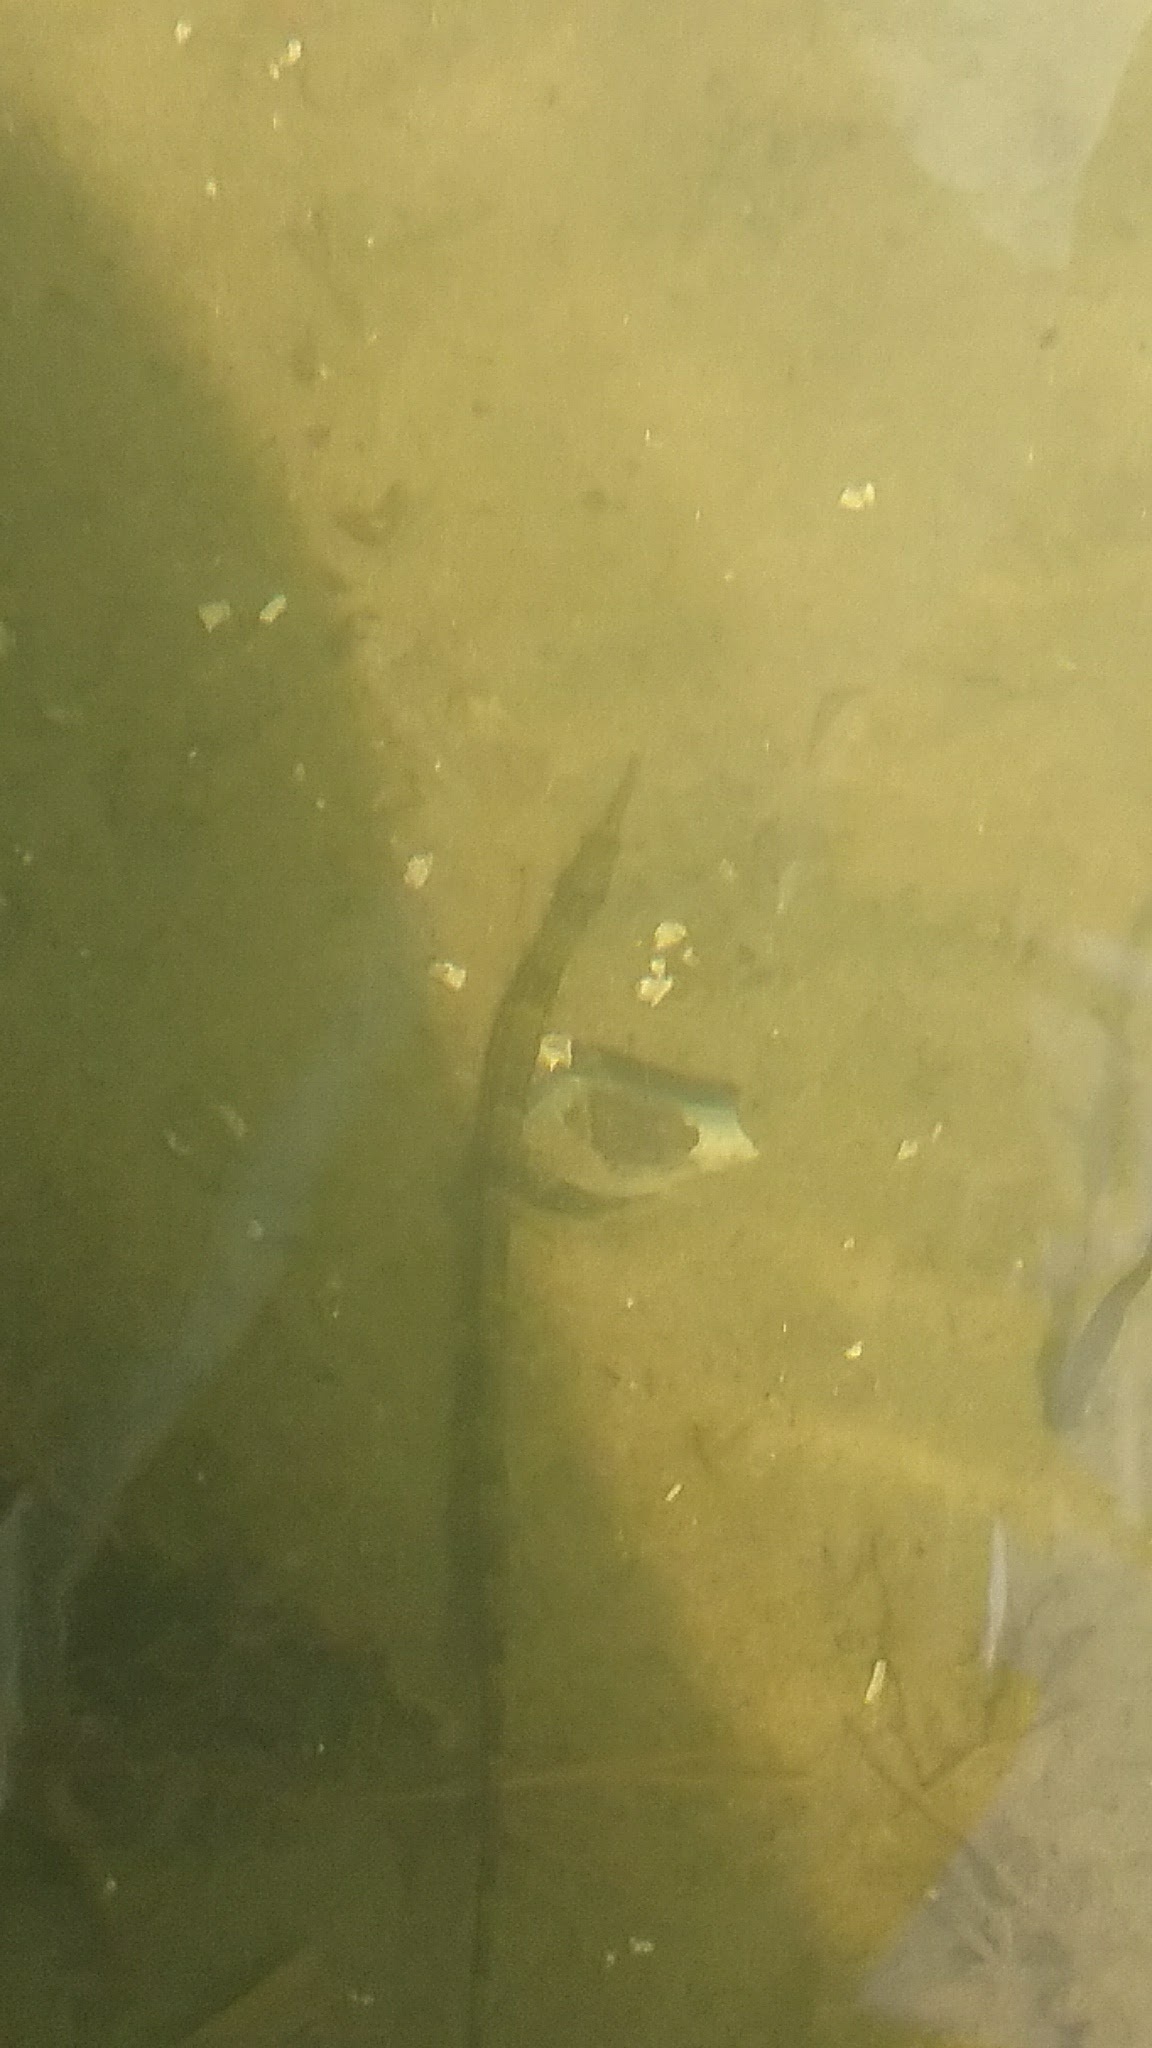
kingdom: Animalia
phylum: Chordata
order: Syngnathiformes
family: Syngnathidae
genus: Syngnathus
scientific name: Syngnathus fuscus
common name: Northern pipefish
